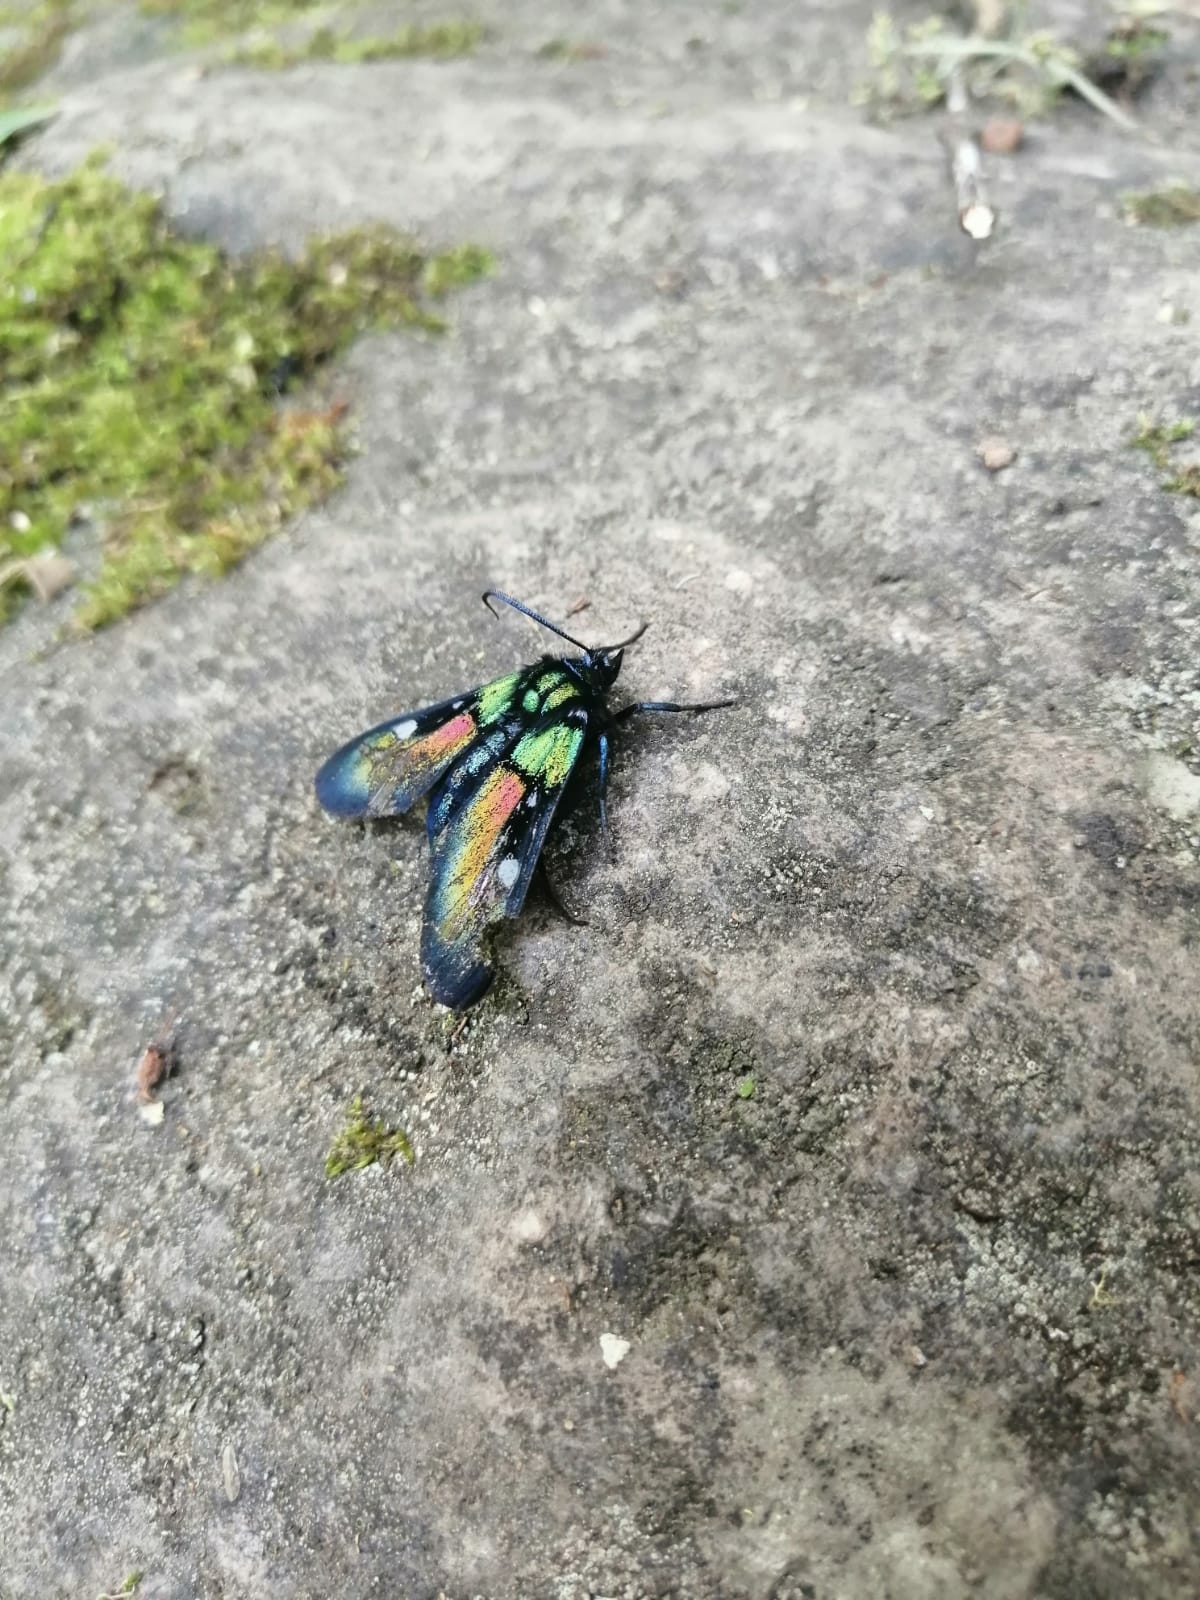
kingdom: Animalia
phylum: Arthropoda
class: Insecta
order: Lepidoptera
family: Erebidae
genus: Chrysocale
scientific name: Chrysocale ignita
